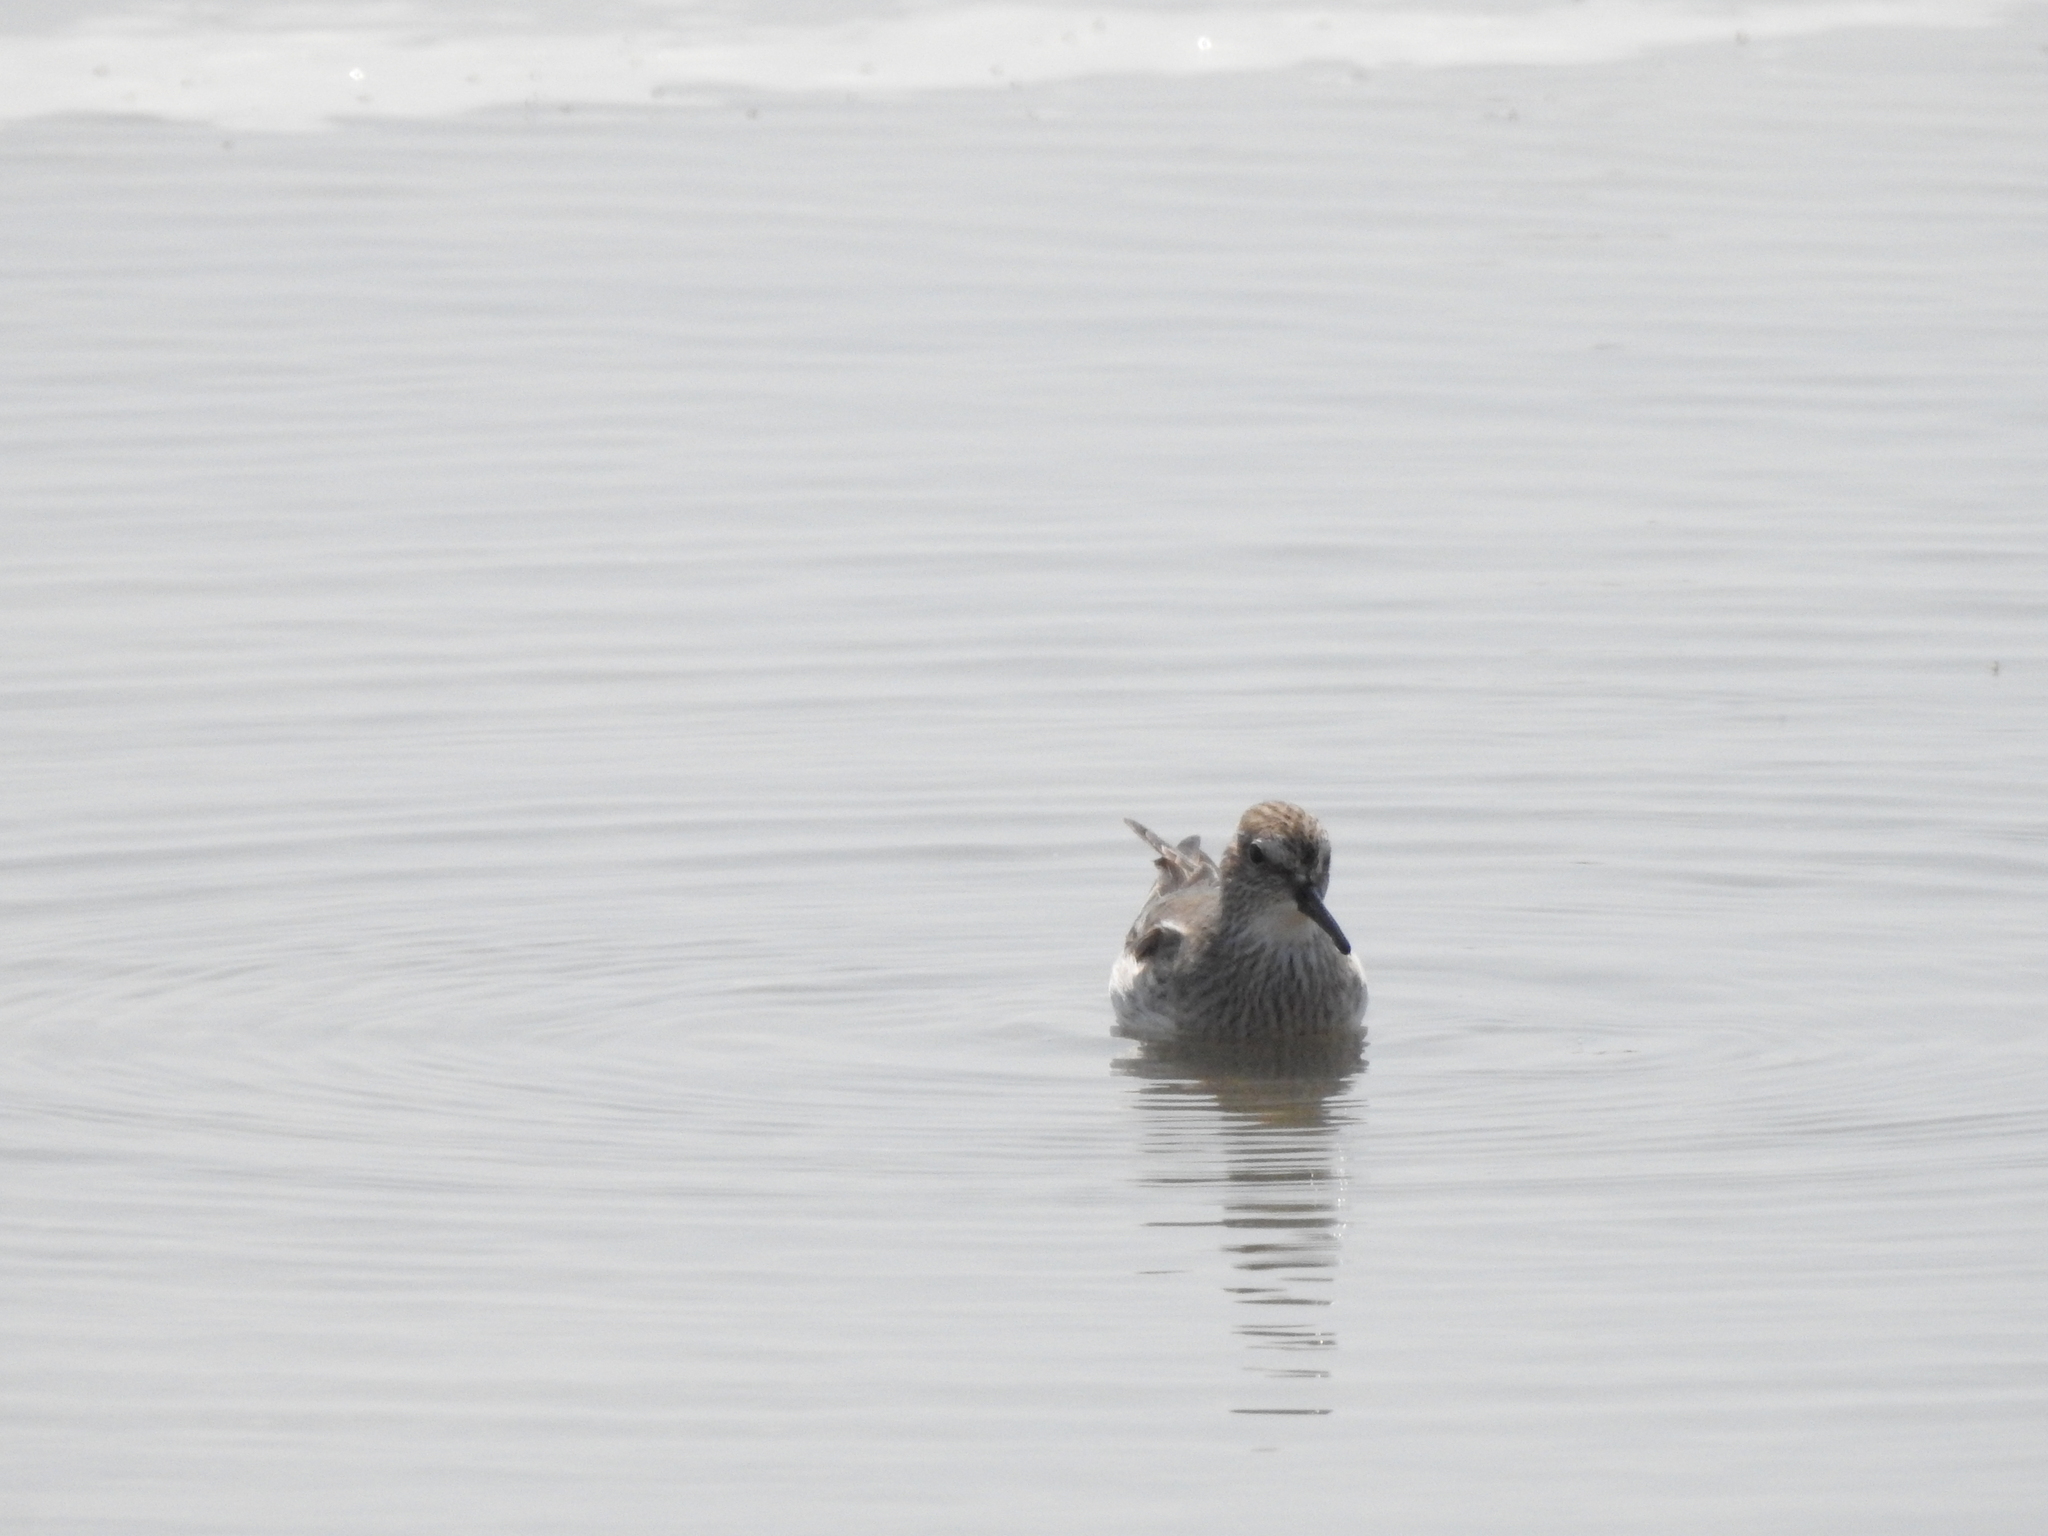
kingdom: Animalia
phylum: Chordata
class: Aves
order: Charadriiformes
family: Scolopacidae
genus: Calidris
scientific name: Calidris fuscicollis
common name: White-rumped sandpiper
